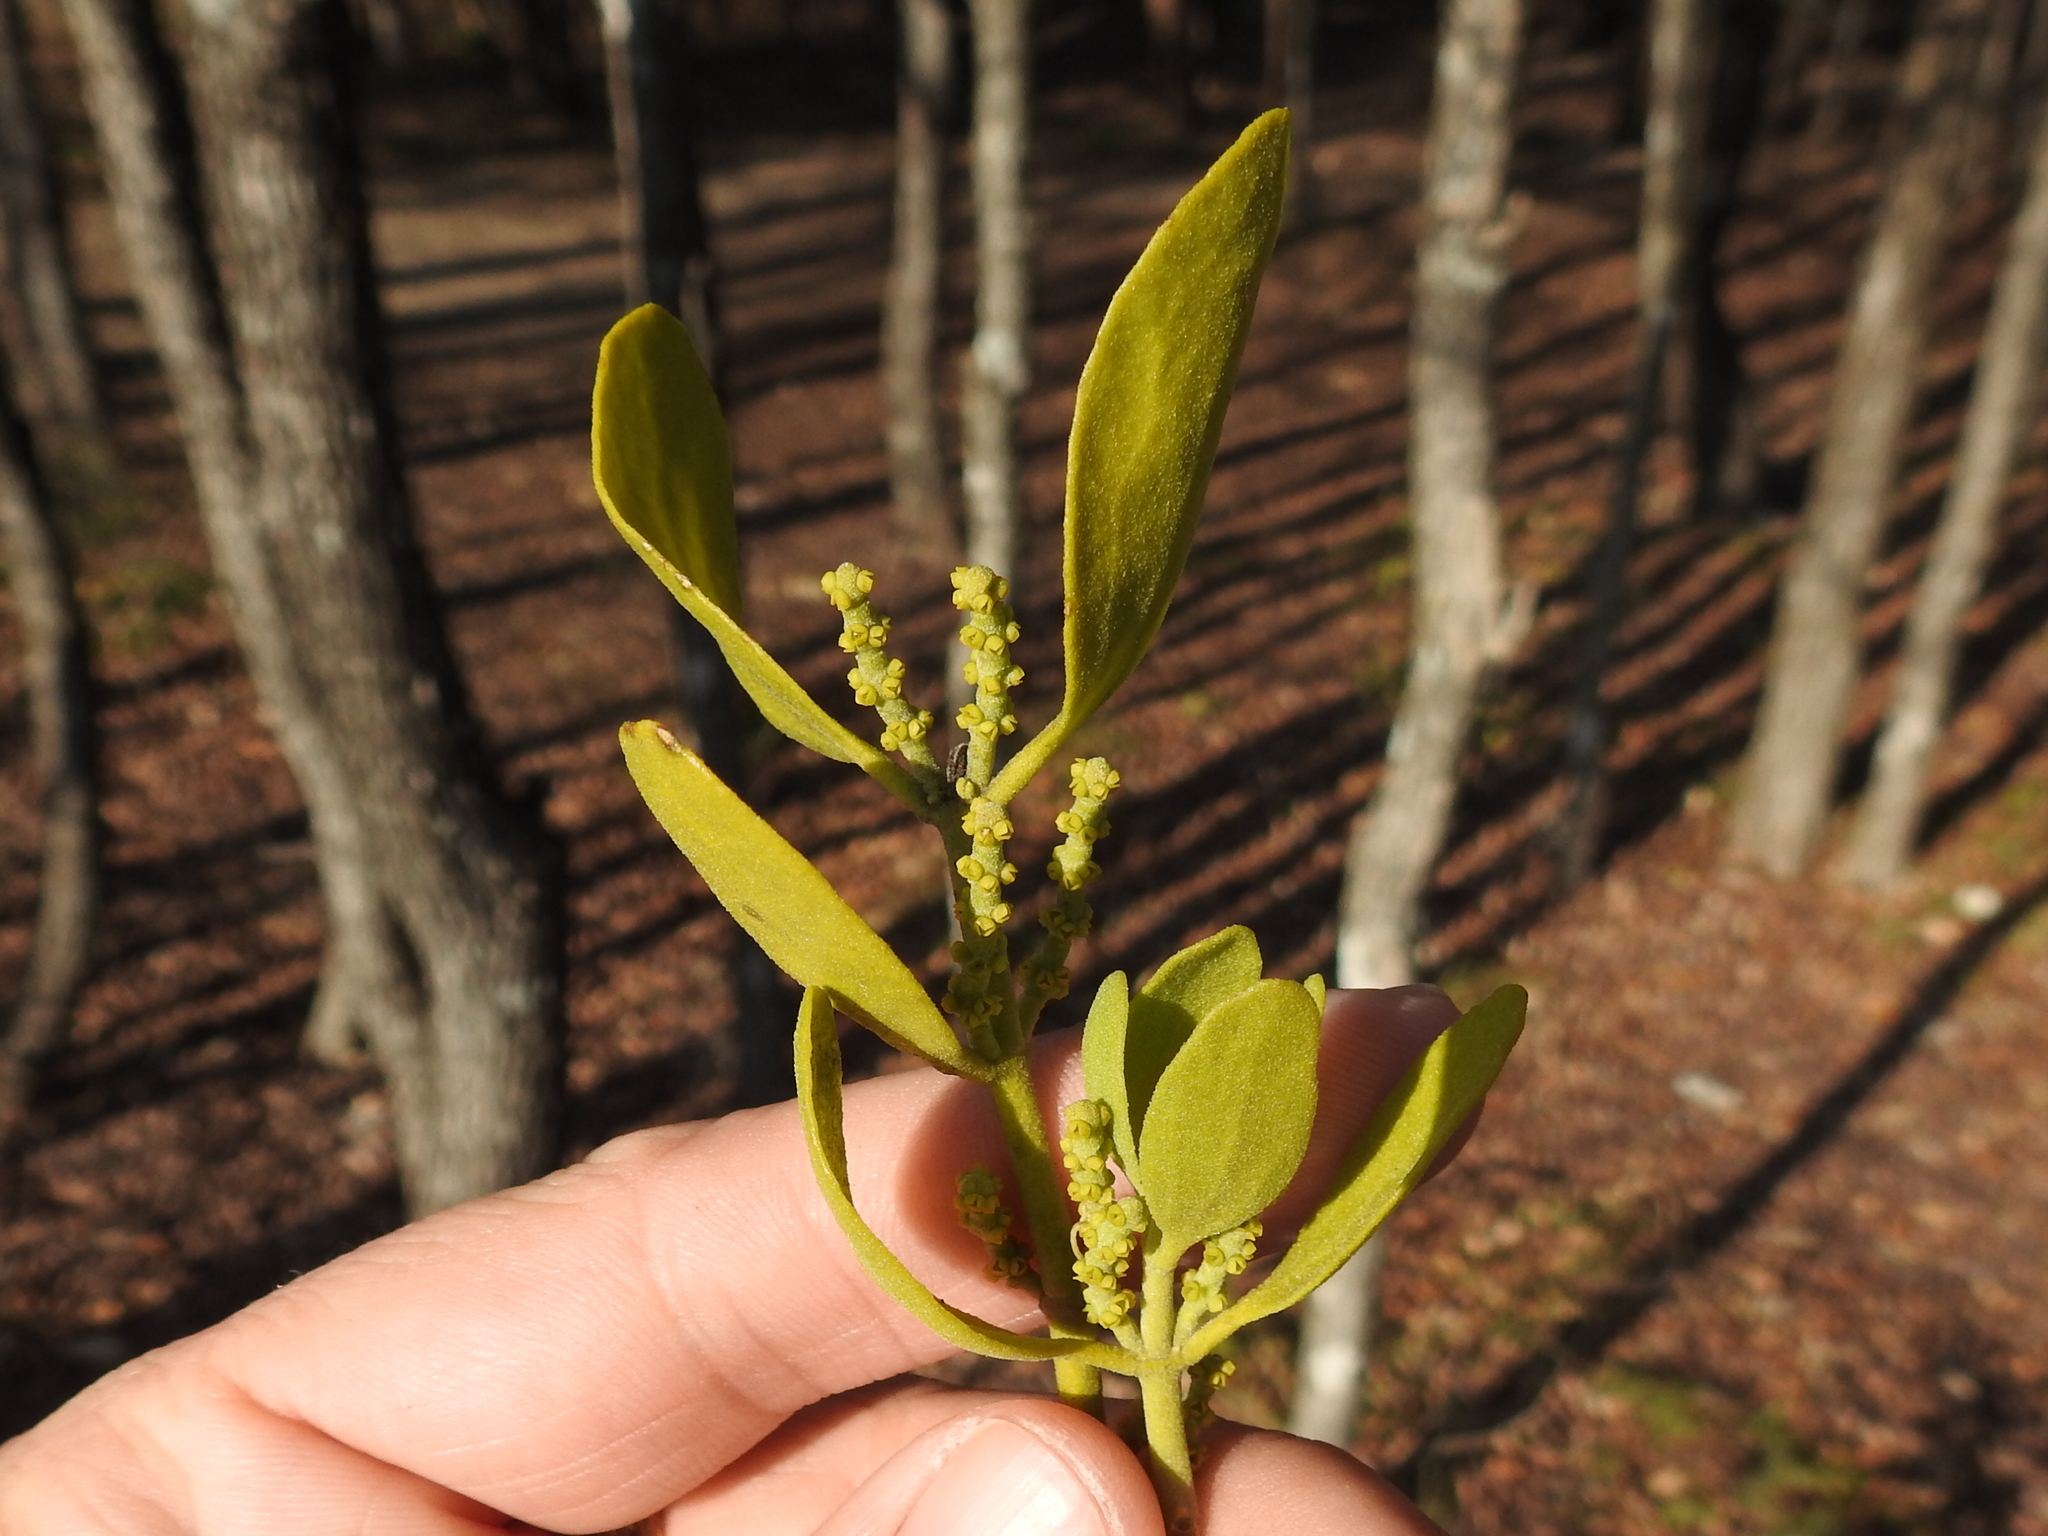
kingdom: Plantae
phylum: Tracheophyta
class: Magnoliopsida
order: Santalales
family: Viscaceae
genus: Phoradendron
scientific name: Phoradendron leucarpum
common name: Pacific mistletoe
